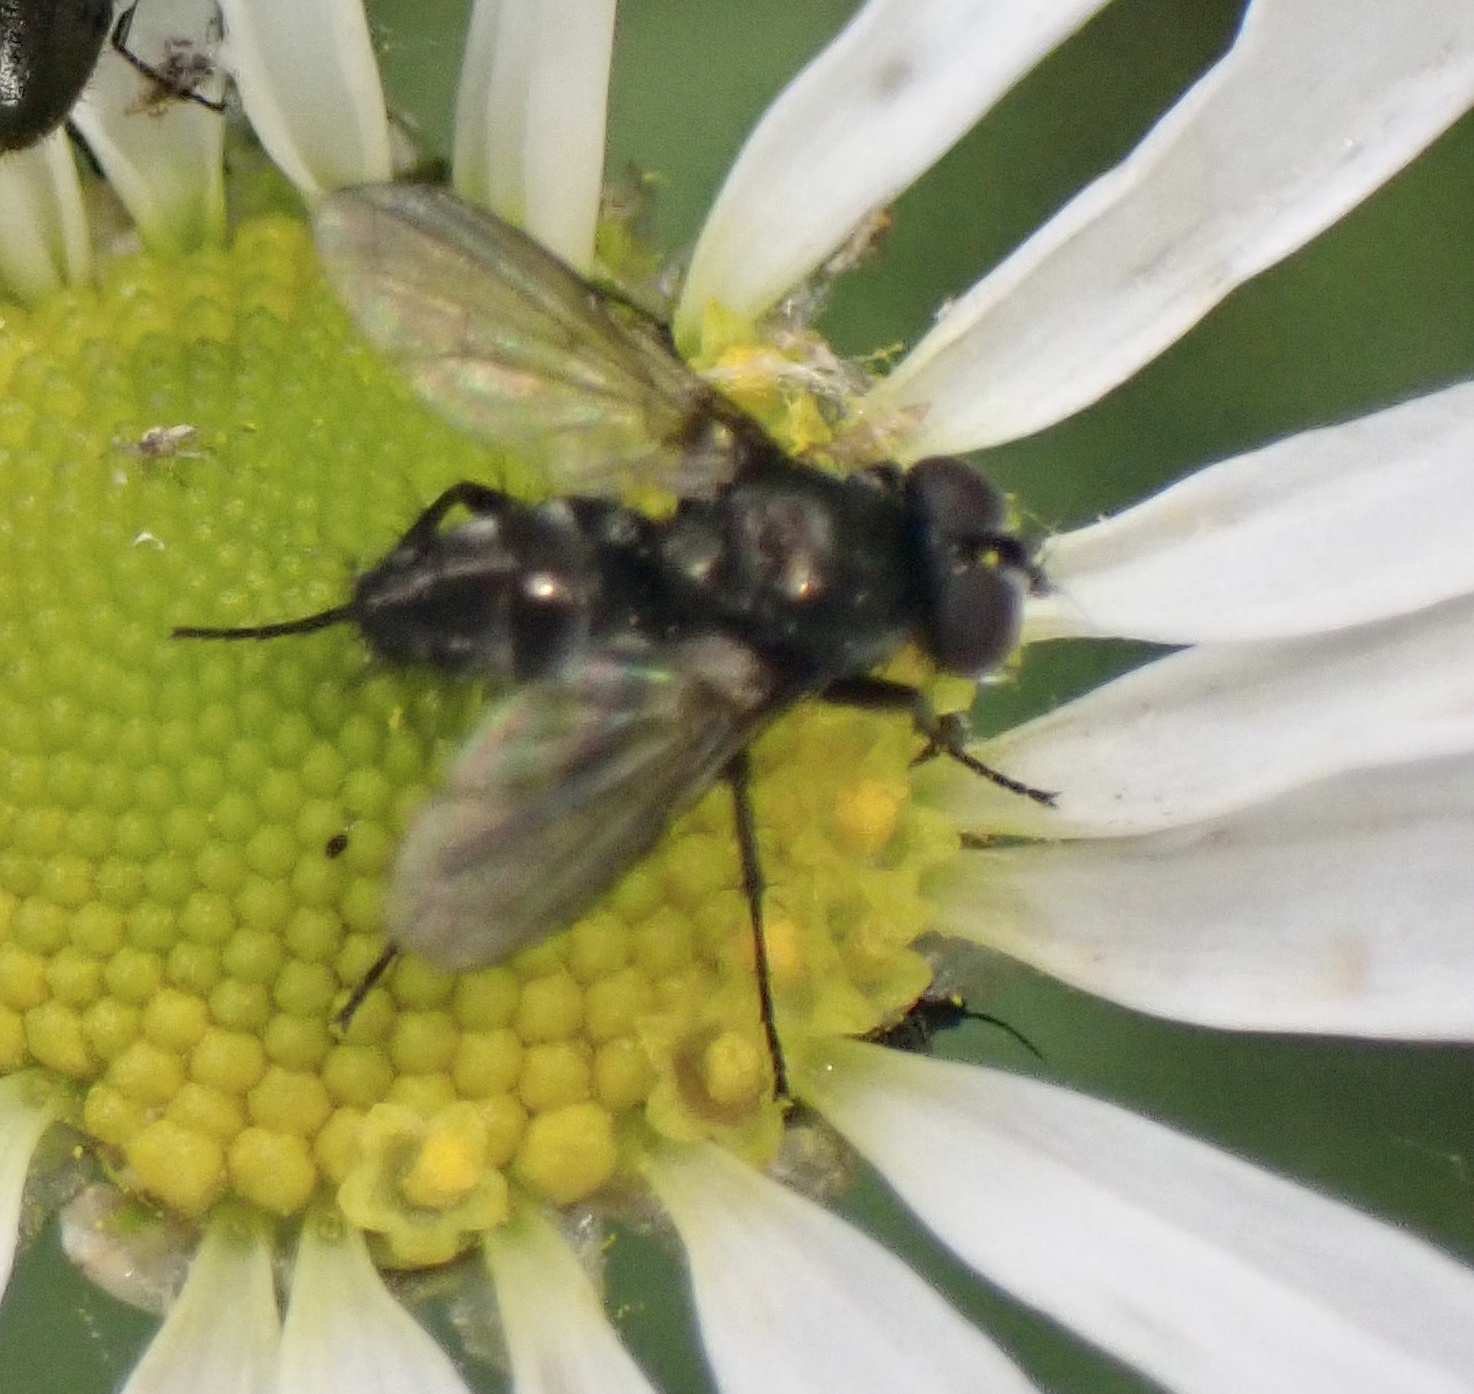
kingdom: Animalia
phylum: Arthropoda
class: Insecta
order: Diptera
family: Calliphoridae
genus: Rhinophora
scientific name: Rhinophora lepida
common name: Pouting woodlouse-fly
